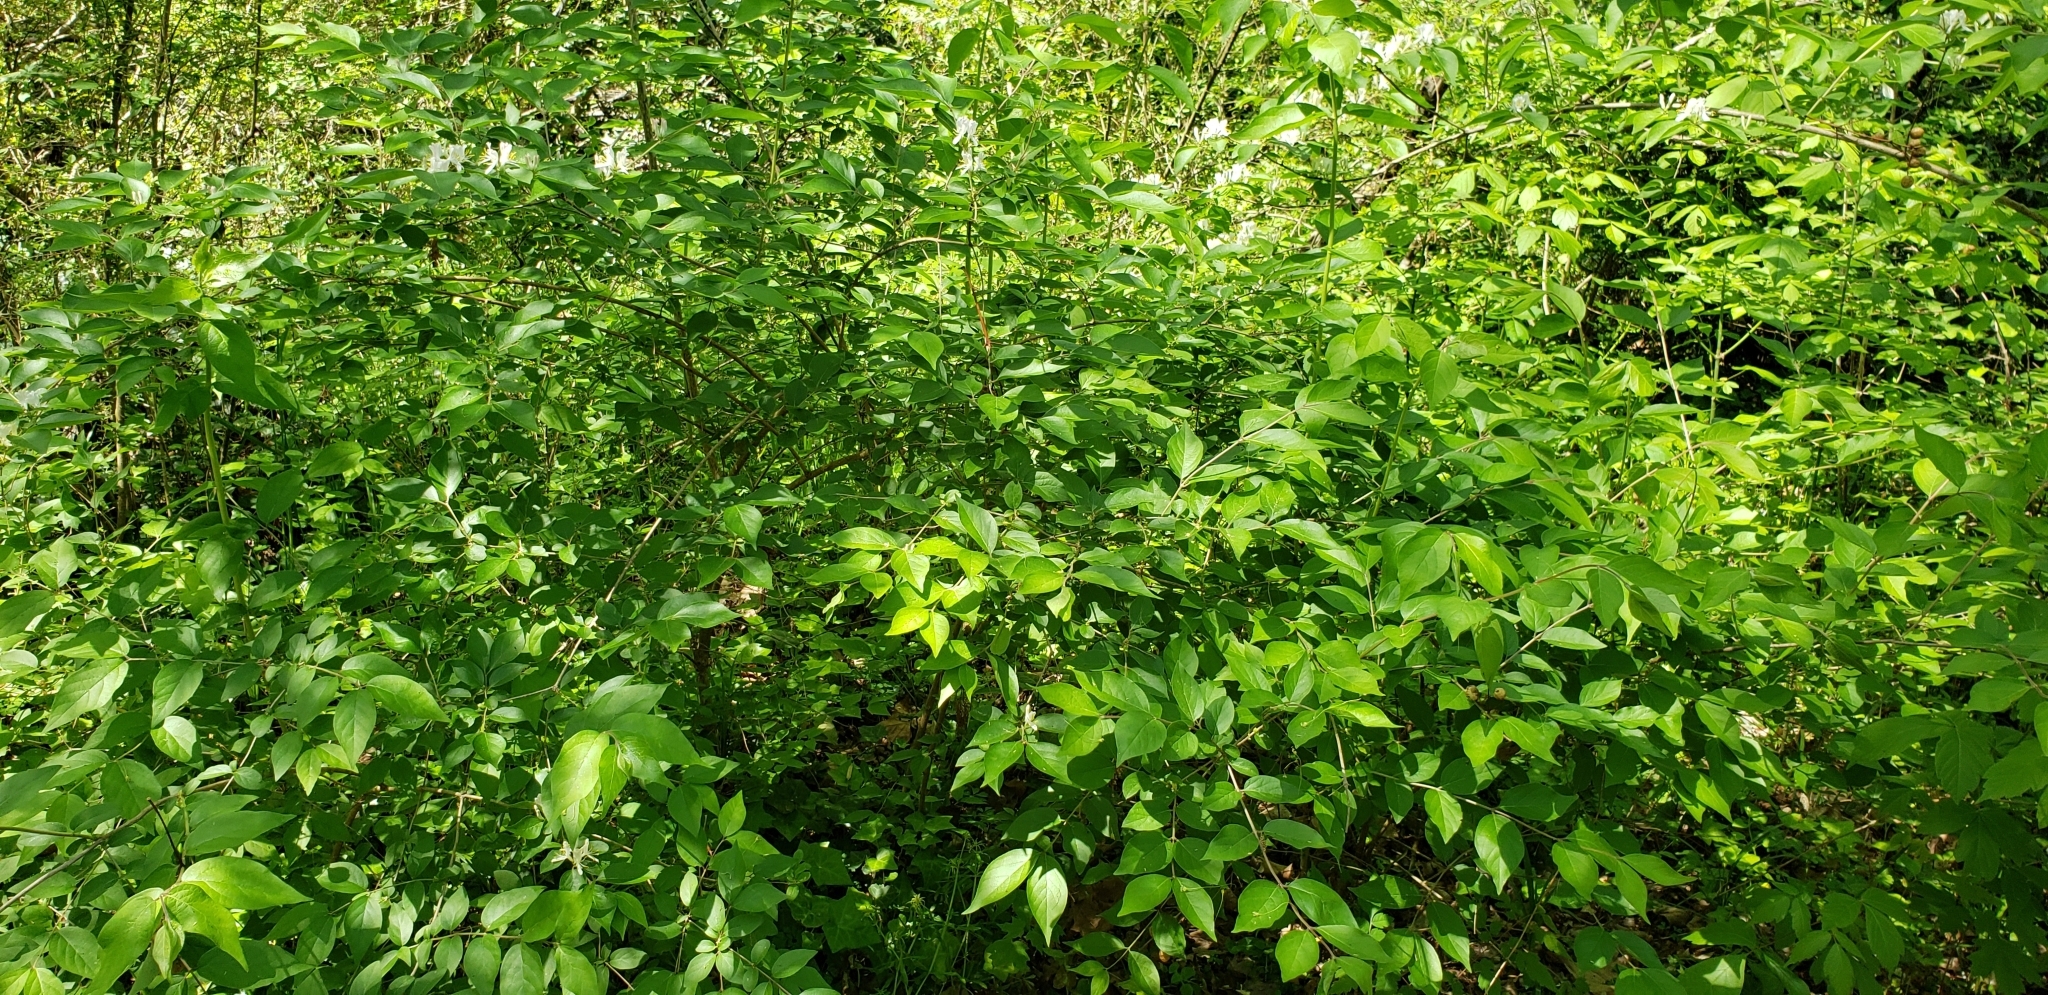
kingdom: Plantae
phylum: Tracheophyta
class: Magnoliopsida
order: Dipsacales
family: Caprifoliaceae
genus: Lonicera
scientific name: Lonicera maackii
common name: Amur honeysuckle
